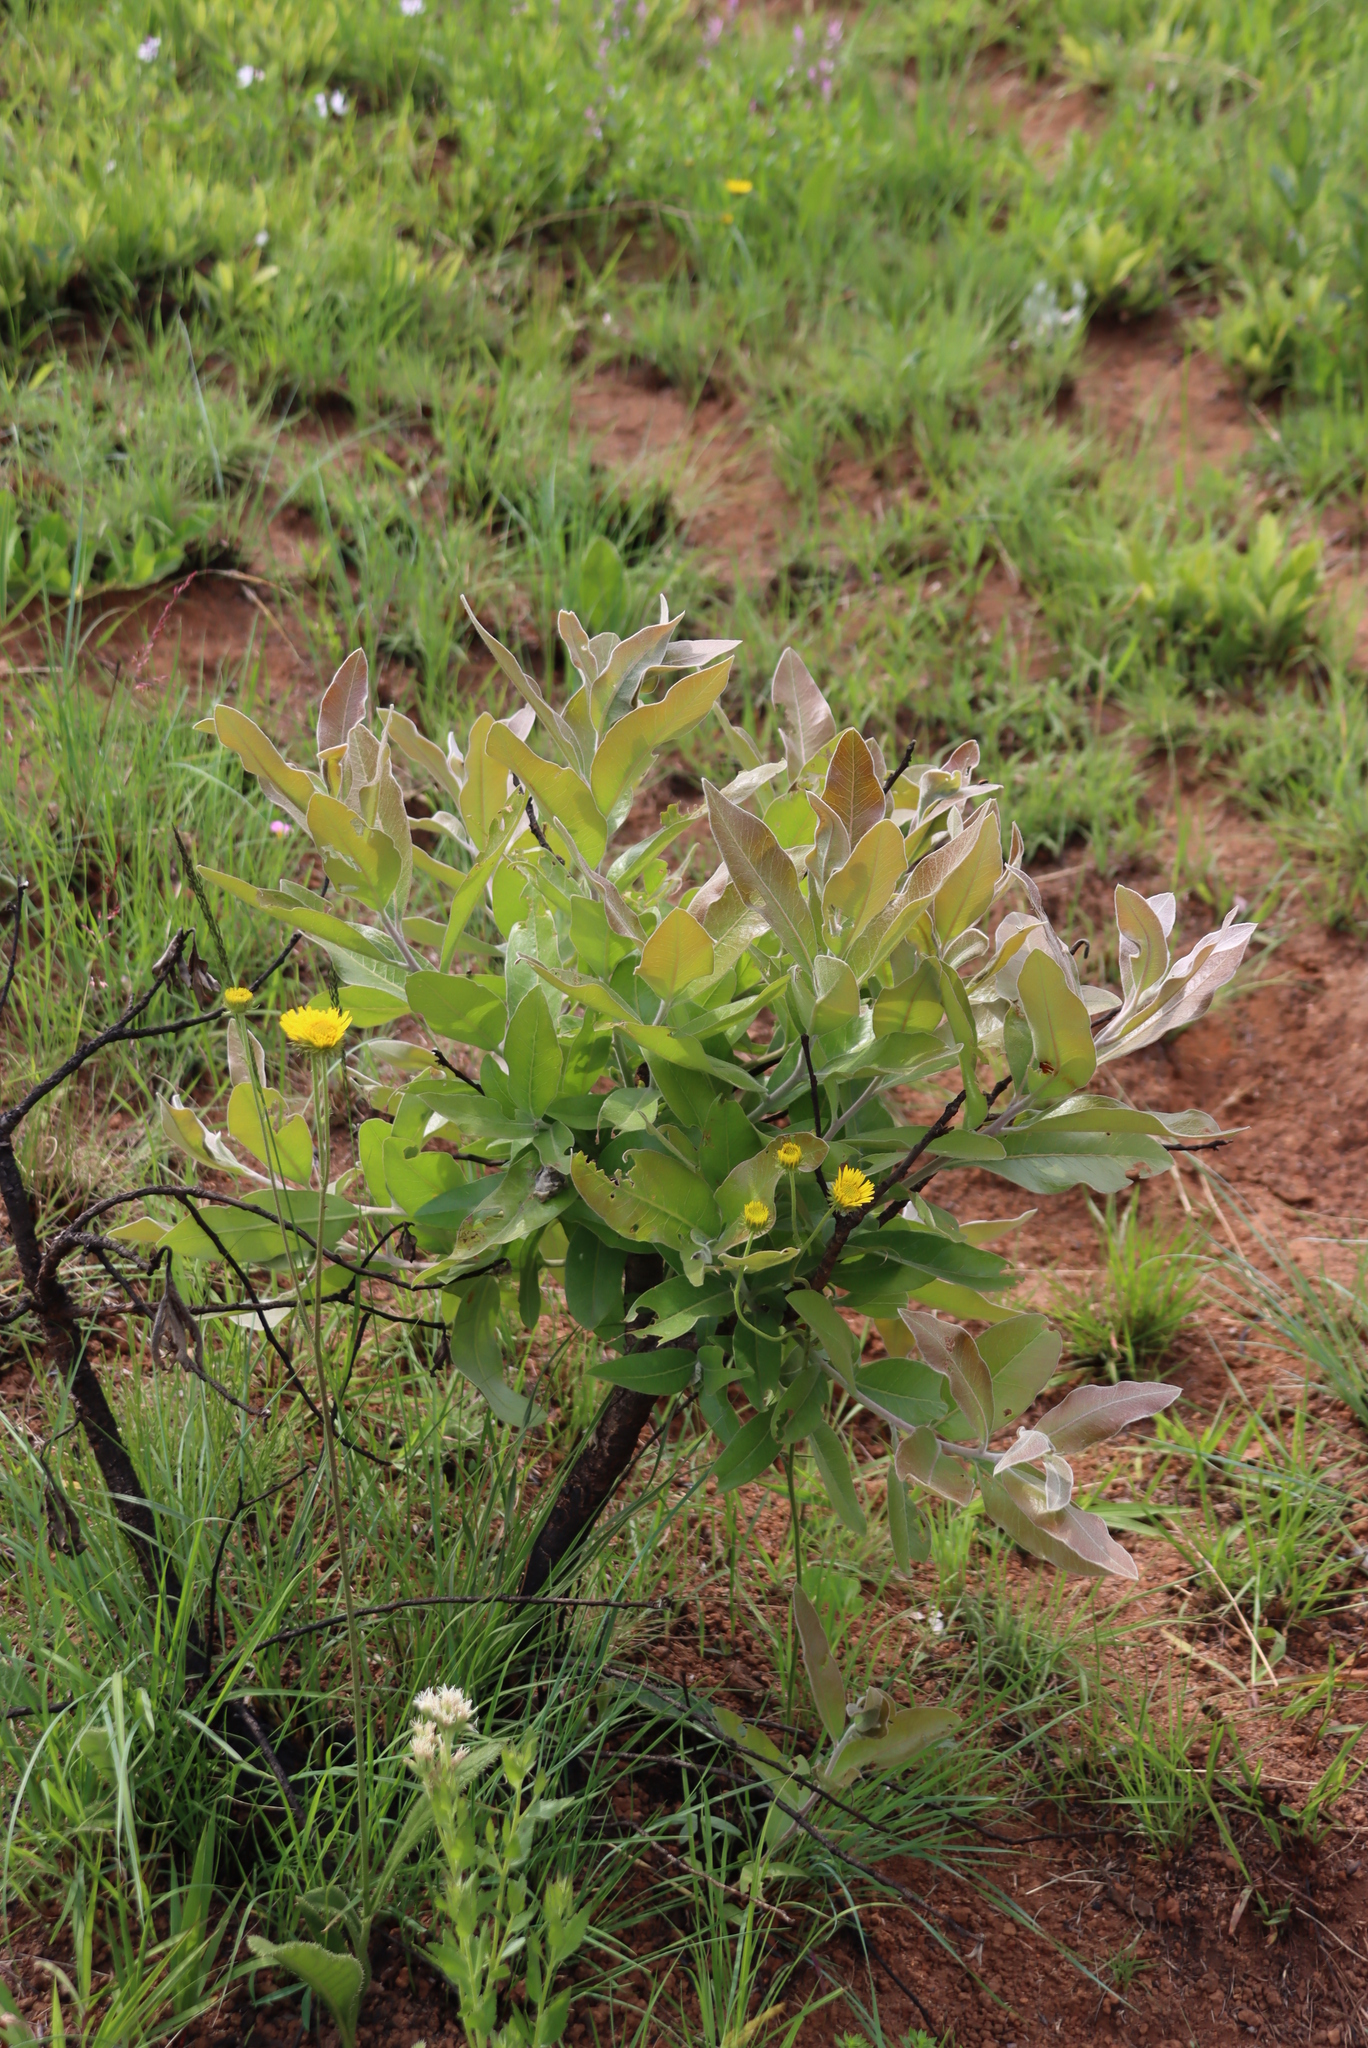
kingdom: Plantae
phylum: Tracheophyta
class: Magnoliopsida
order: Proteales
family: Proteaceae
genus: Faurea
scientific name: Faurea rochetiana
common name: Broad-leaved beech
